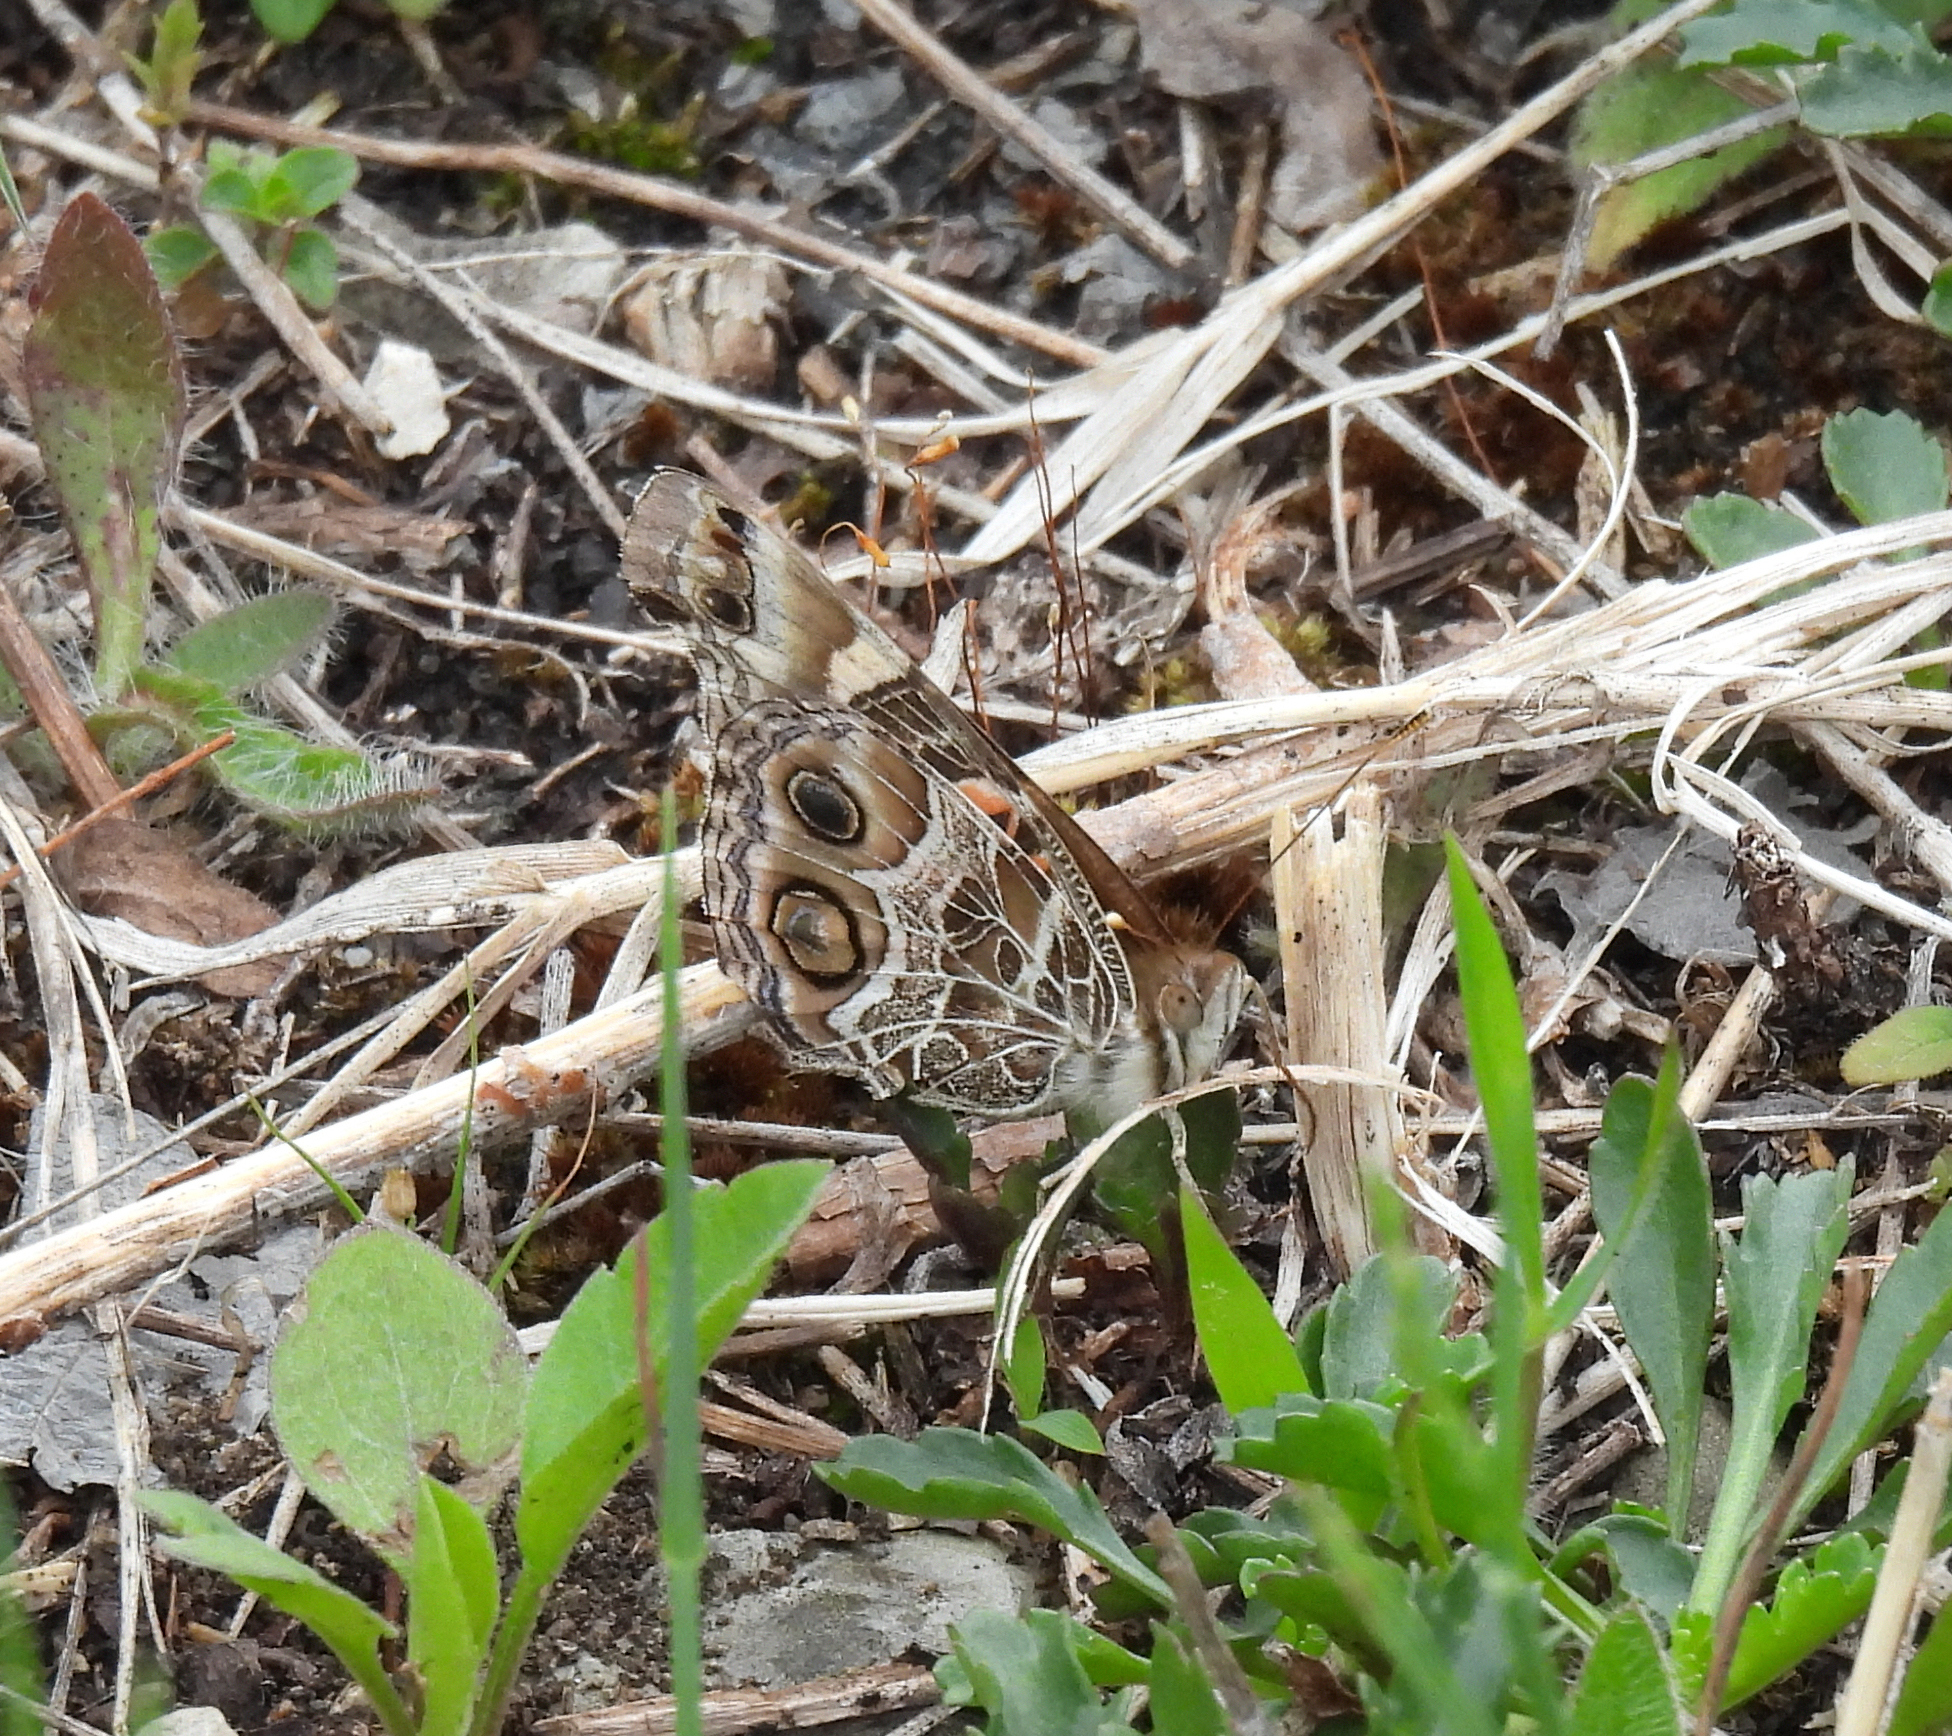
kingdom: Animalia
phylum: Arthropoda
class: Insecta
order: Lepidoptera
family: Nymphalidae
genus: Vanessa
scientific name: Vanessa virginiensis
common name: American lady
